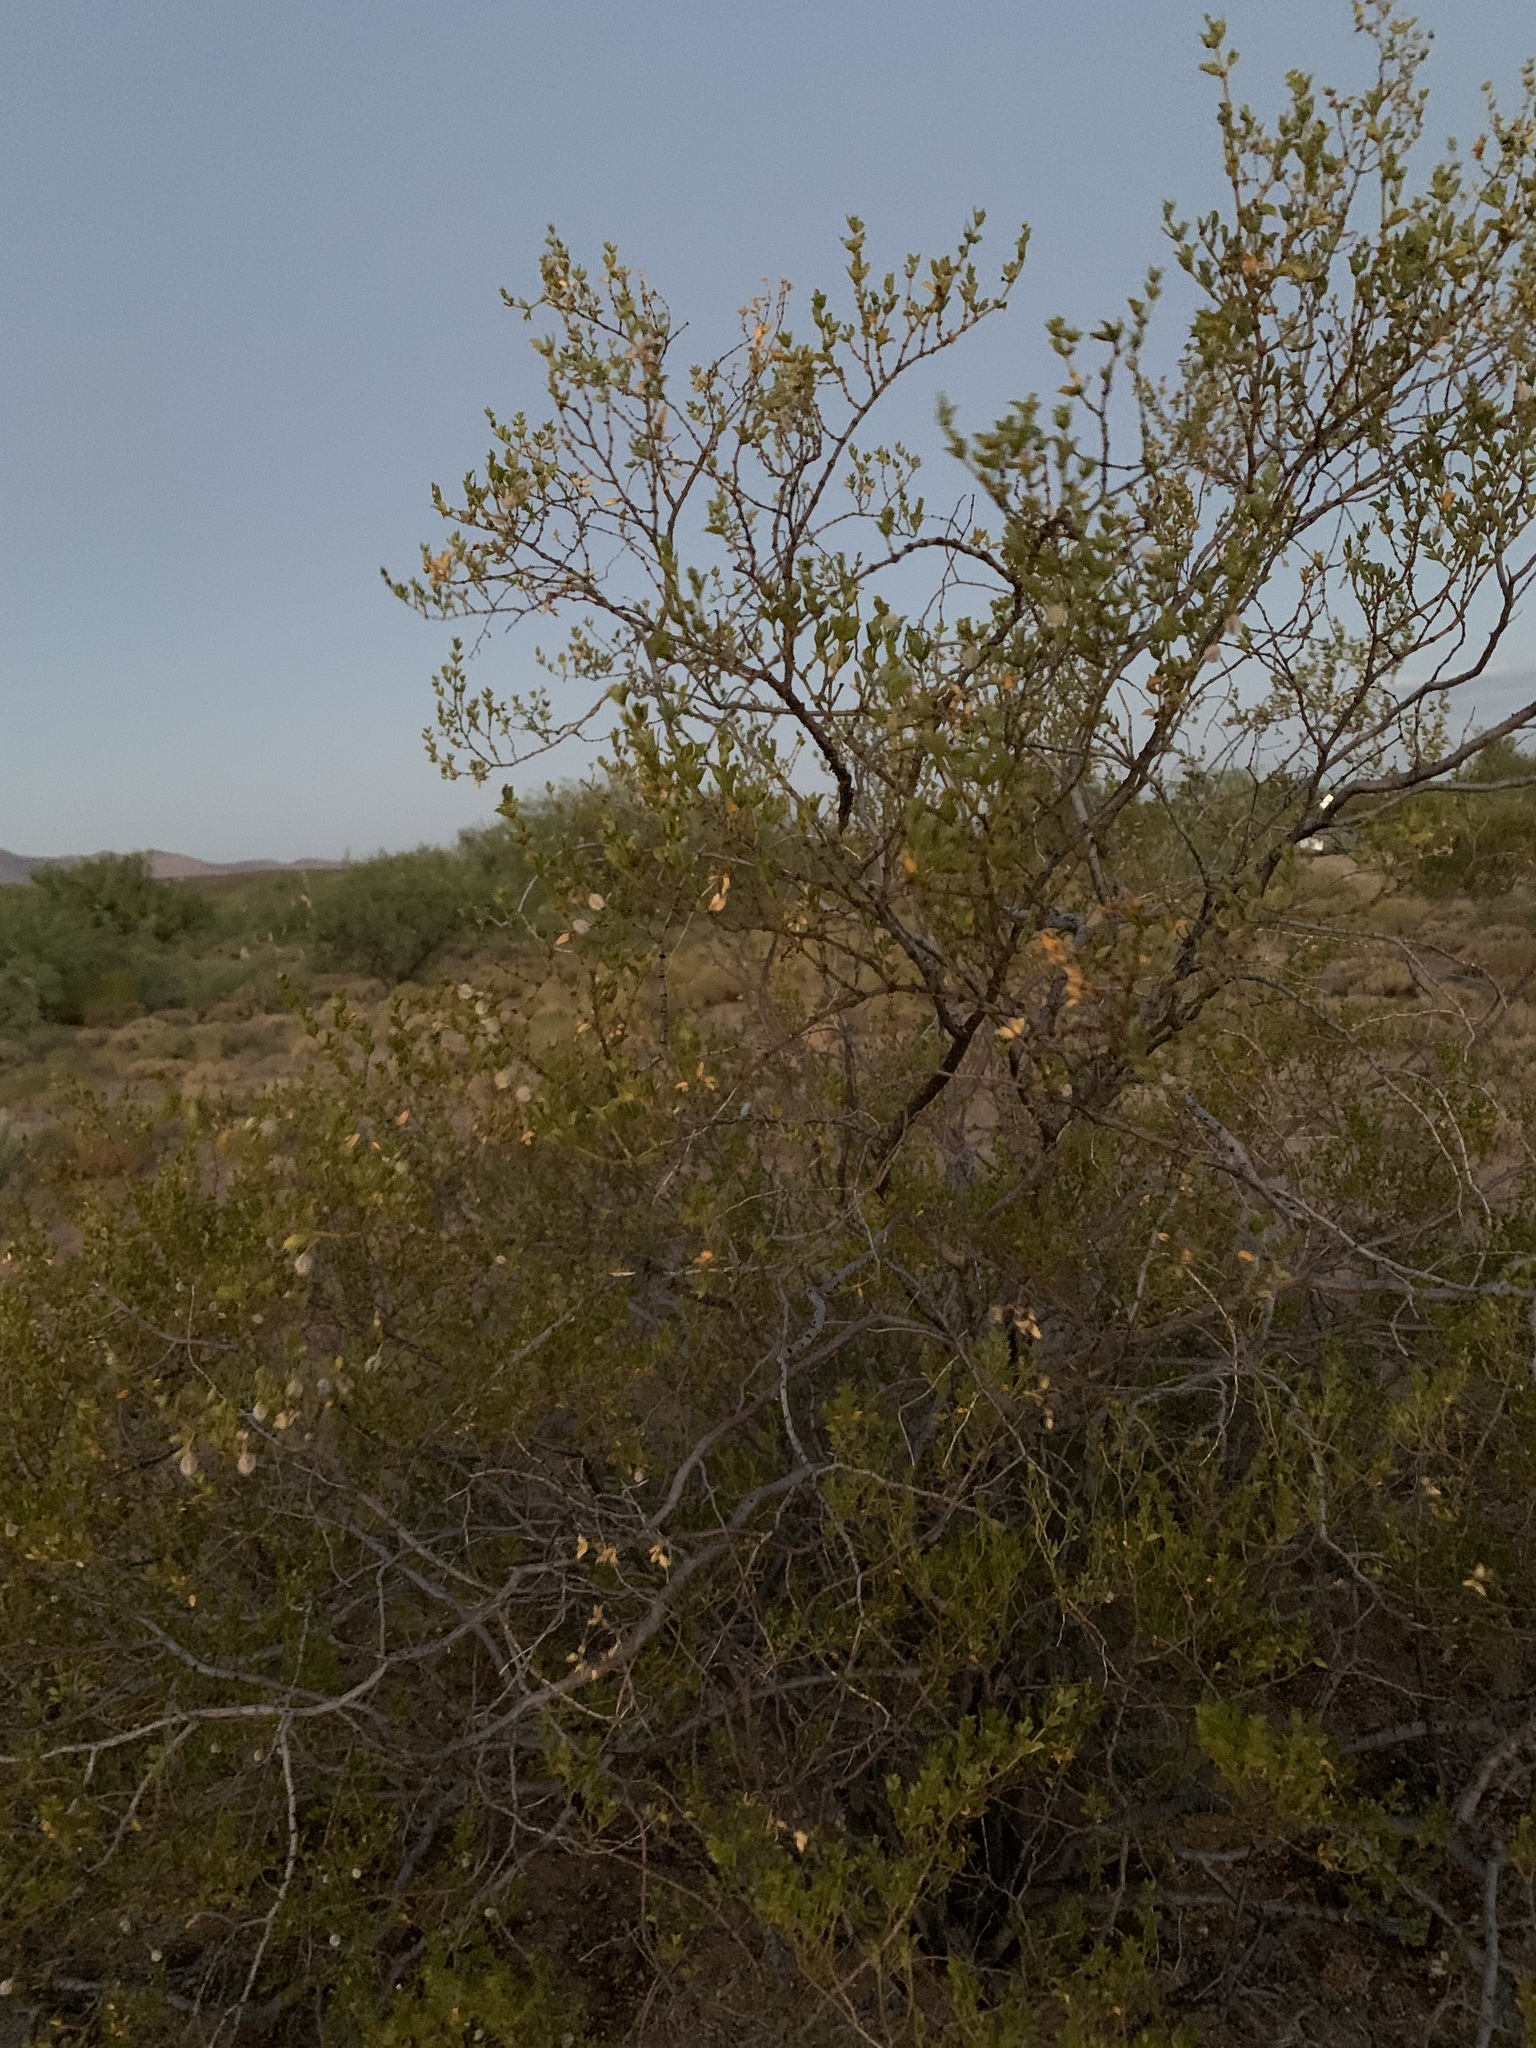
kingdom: Plantae
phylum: Tracheophyta
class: Magnoliopsida
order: Zygophyllales
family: Zygophyllaceae
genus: Larrea
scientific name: Larrea tridentata
